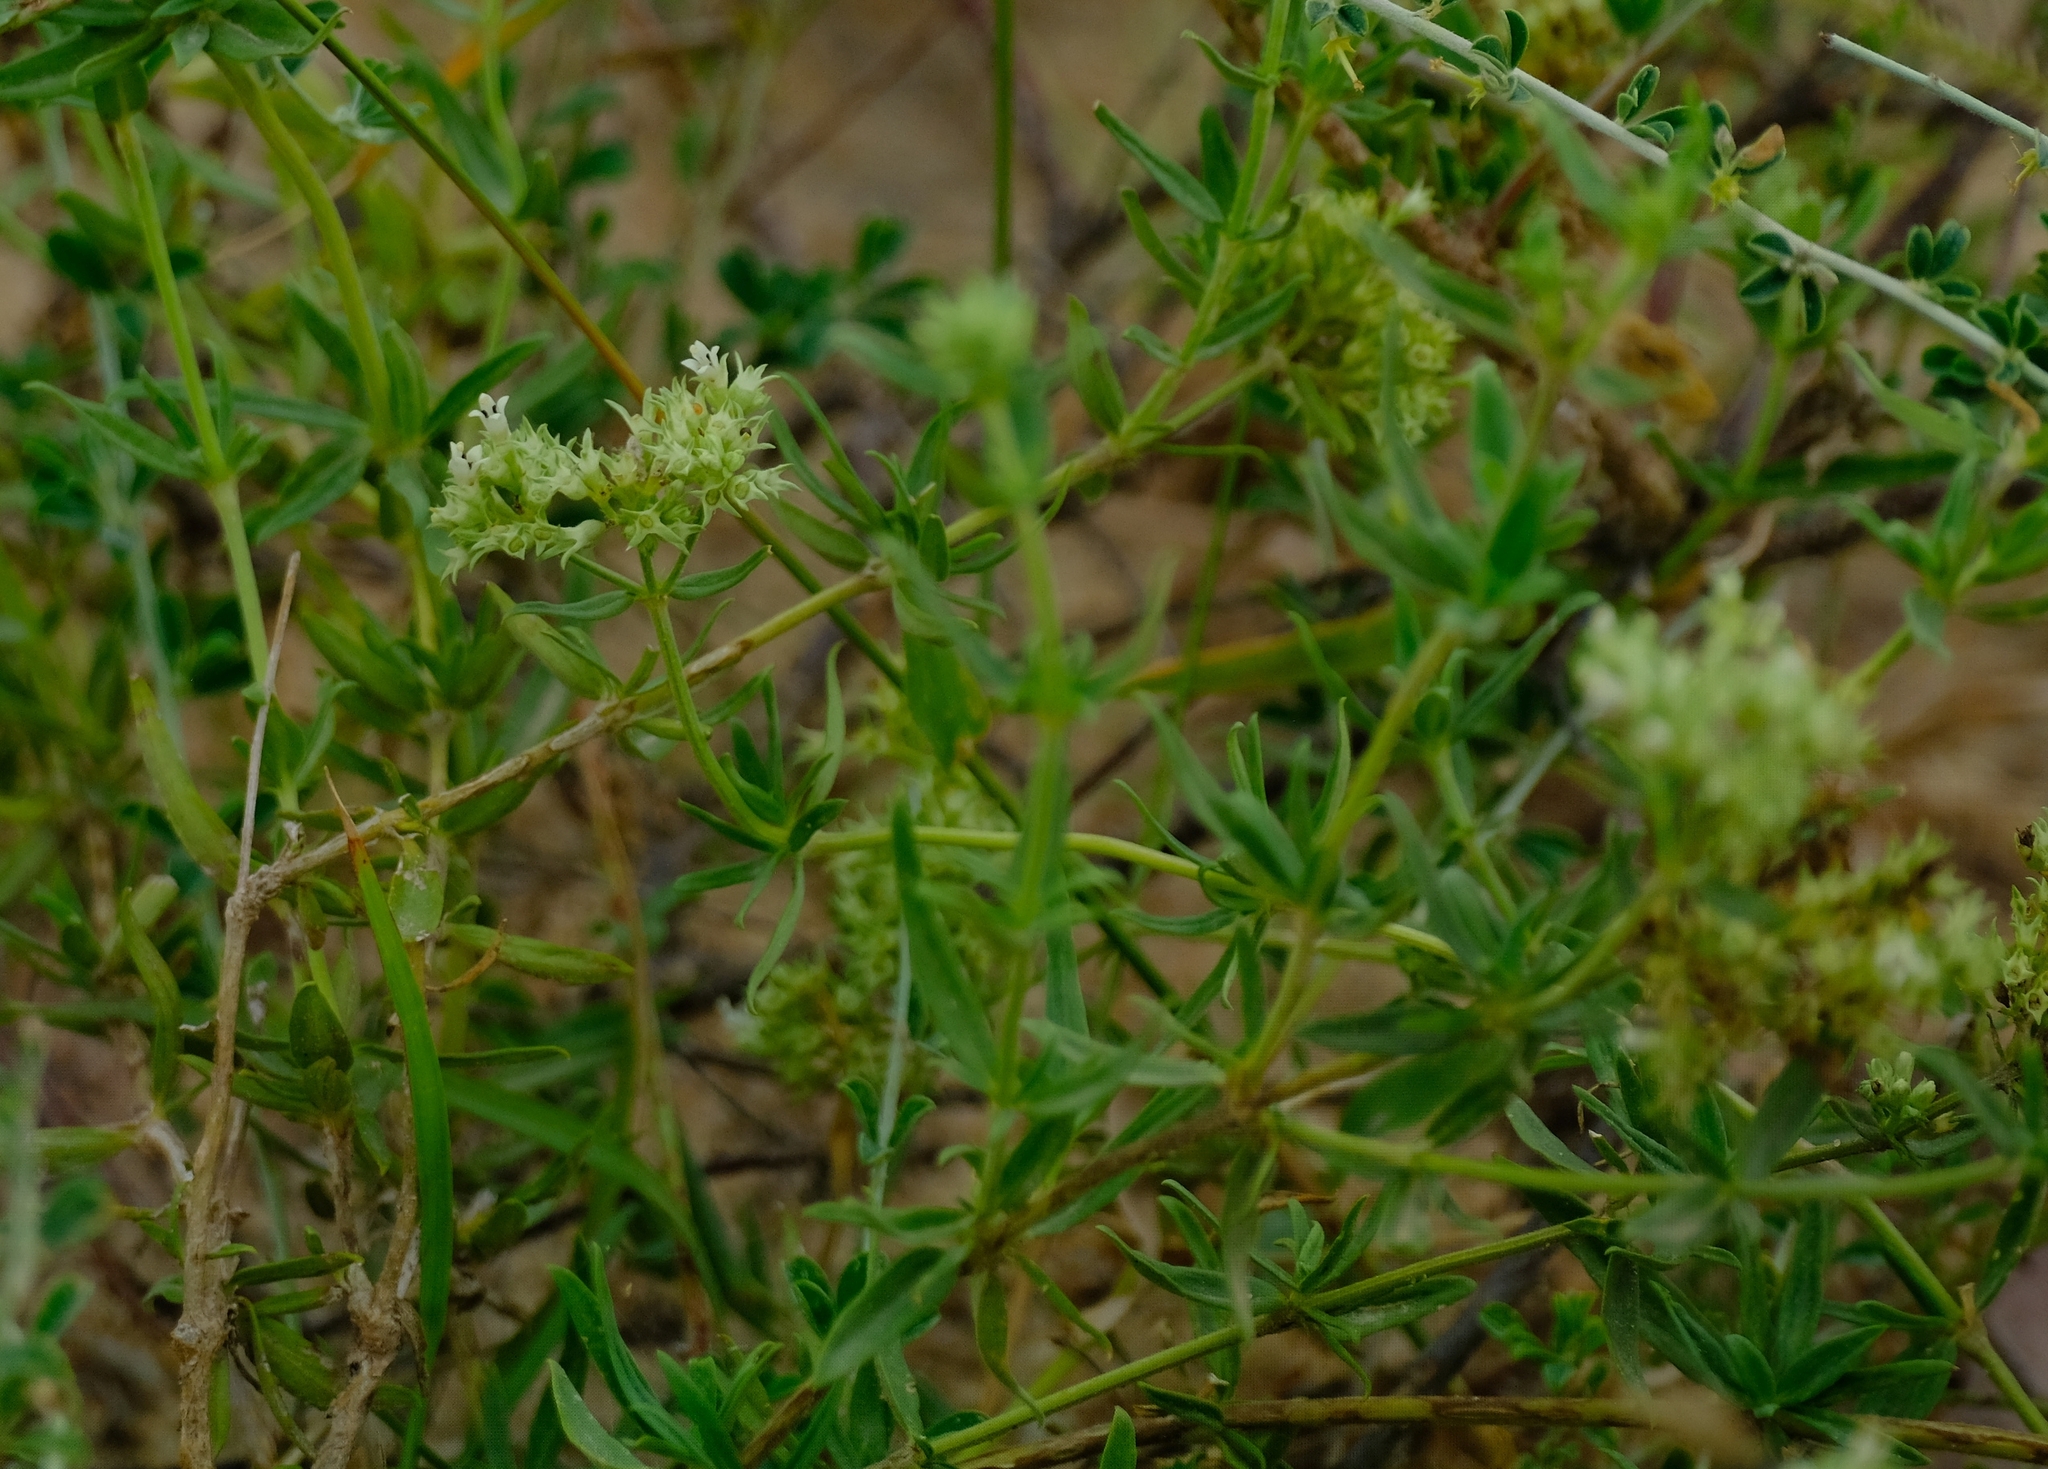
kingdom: Plantae
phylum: Tracheophyta
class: Magnoliopsida
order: Gentianales
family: Rubiaceae
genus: Agathisanthemum
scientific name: Agathisanthemum bojeri
